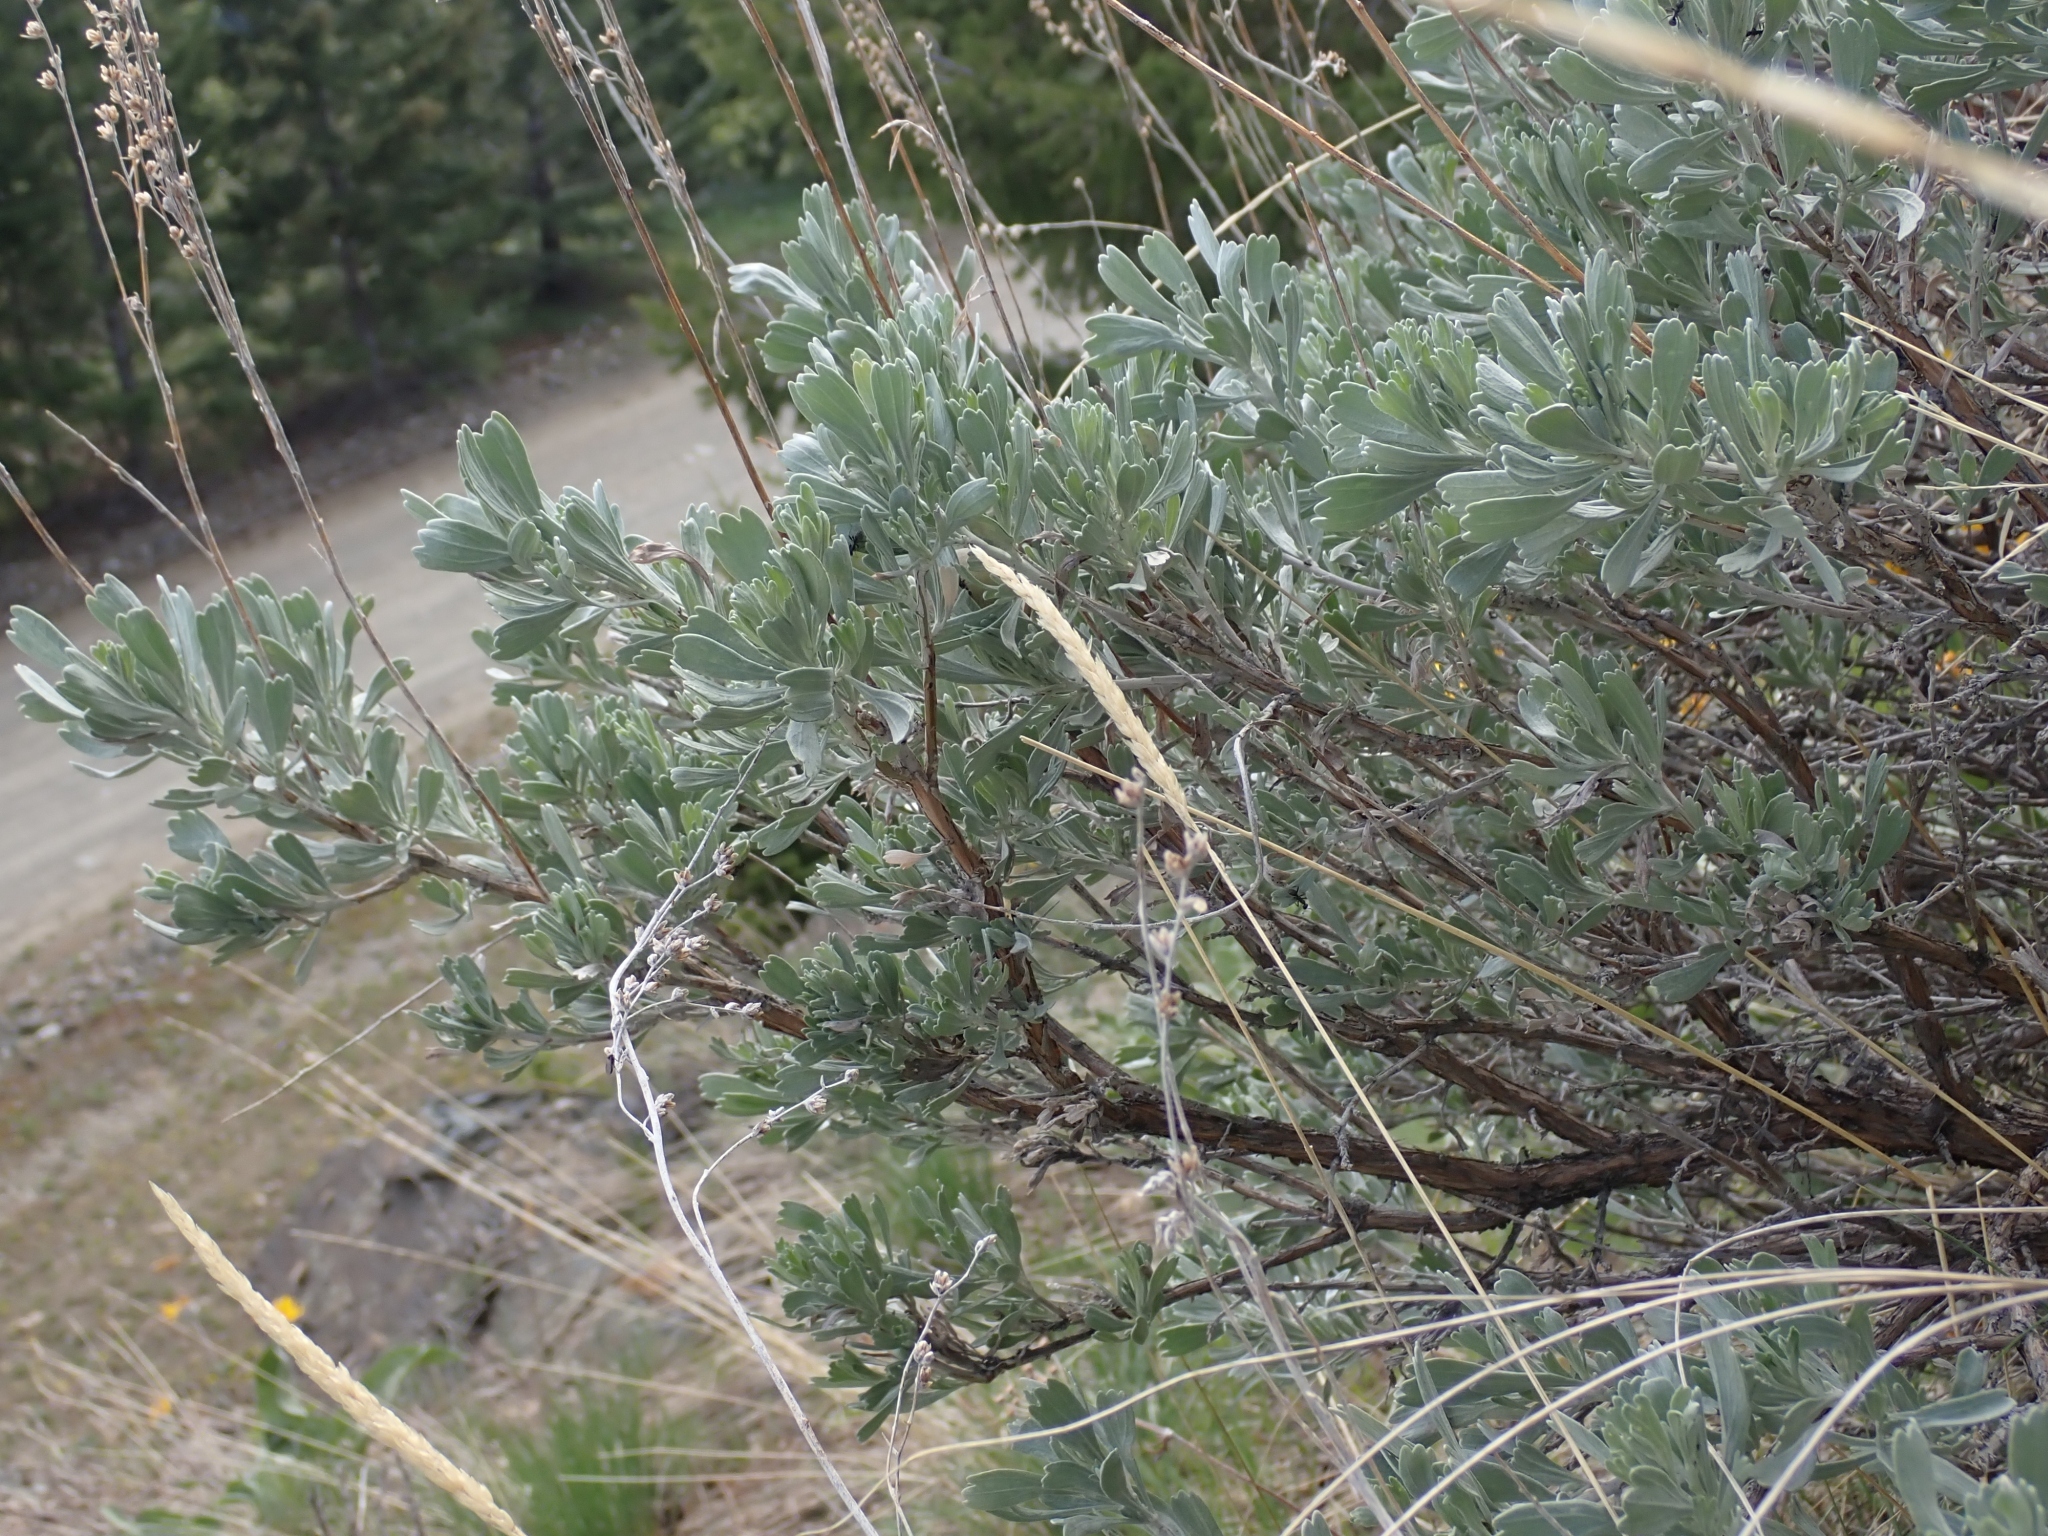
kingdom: Plantae
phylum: Tracheophyta
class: Magnoliopsida
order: Asterales
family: Asteraceae
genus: Artemisia
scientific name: Artemisia tridentata
